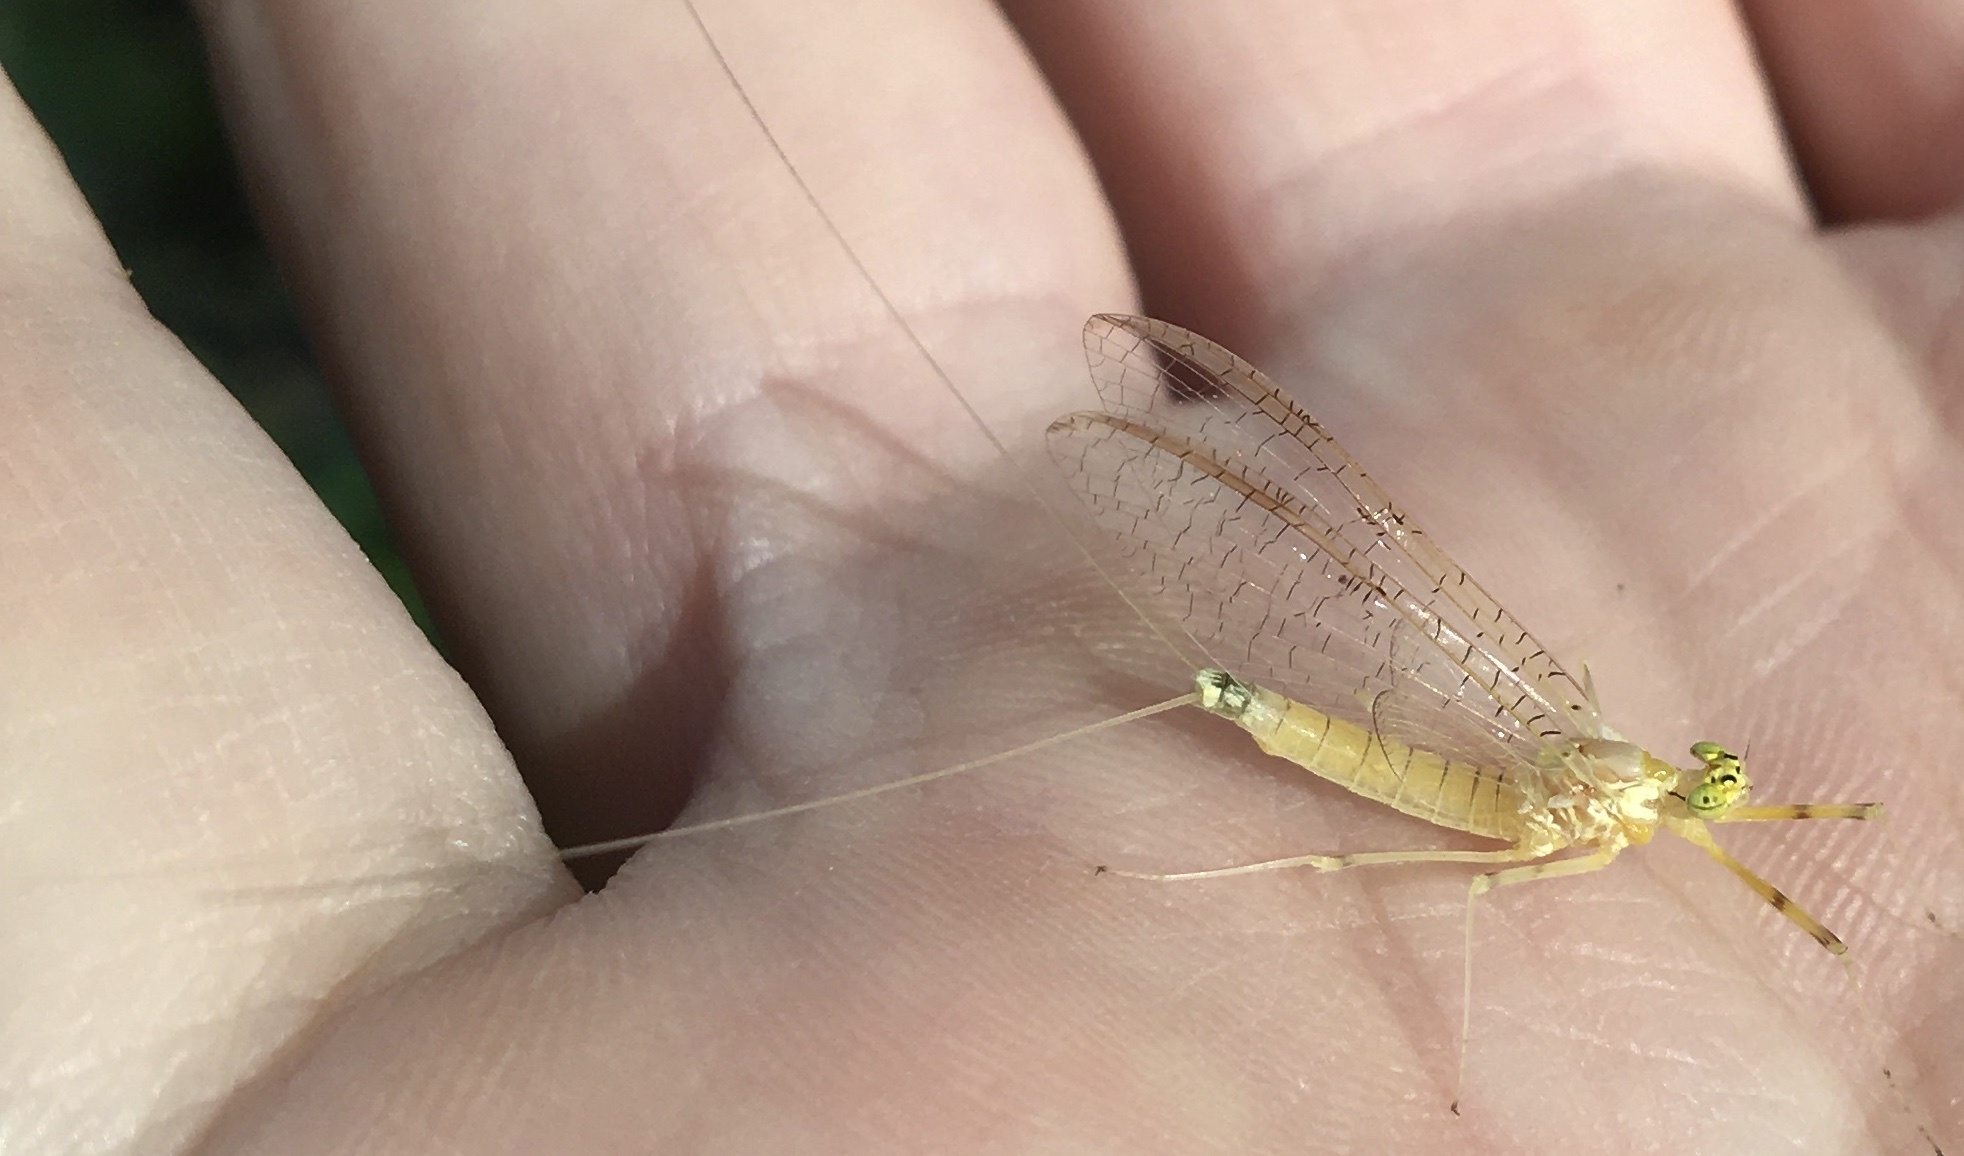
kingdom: Animalia
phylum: Arthropoda
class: Insecta
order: Ephemeroptera
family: Heptageniidae
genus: Stenacron
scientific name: Stenacron interpunctatum
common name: Orange cahill
